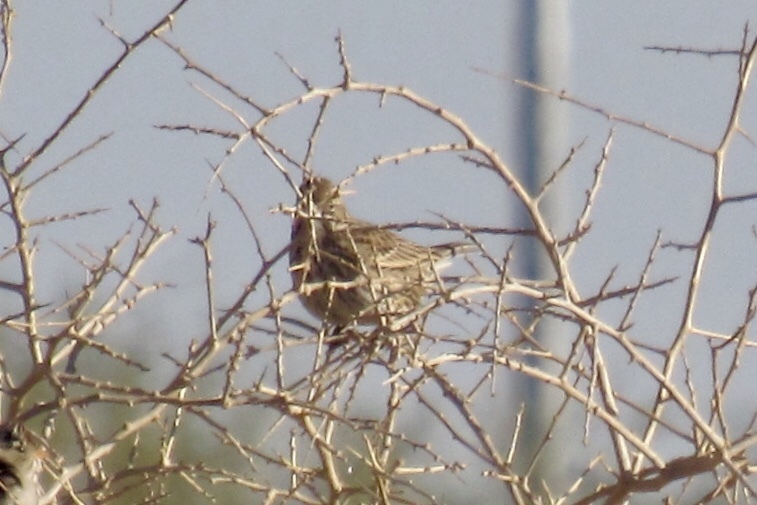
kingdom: Animalia
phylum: Chordata
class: Aves
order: Passeriformes
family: Passerellidae
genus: Calamospiza
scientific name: Calamospiza melanocorys
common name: Lark bunting
